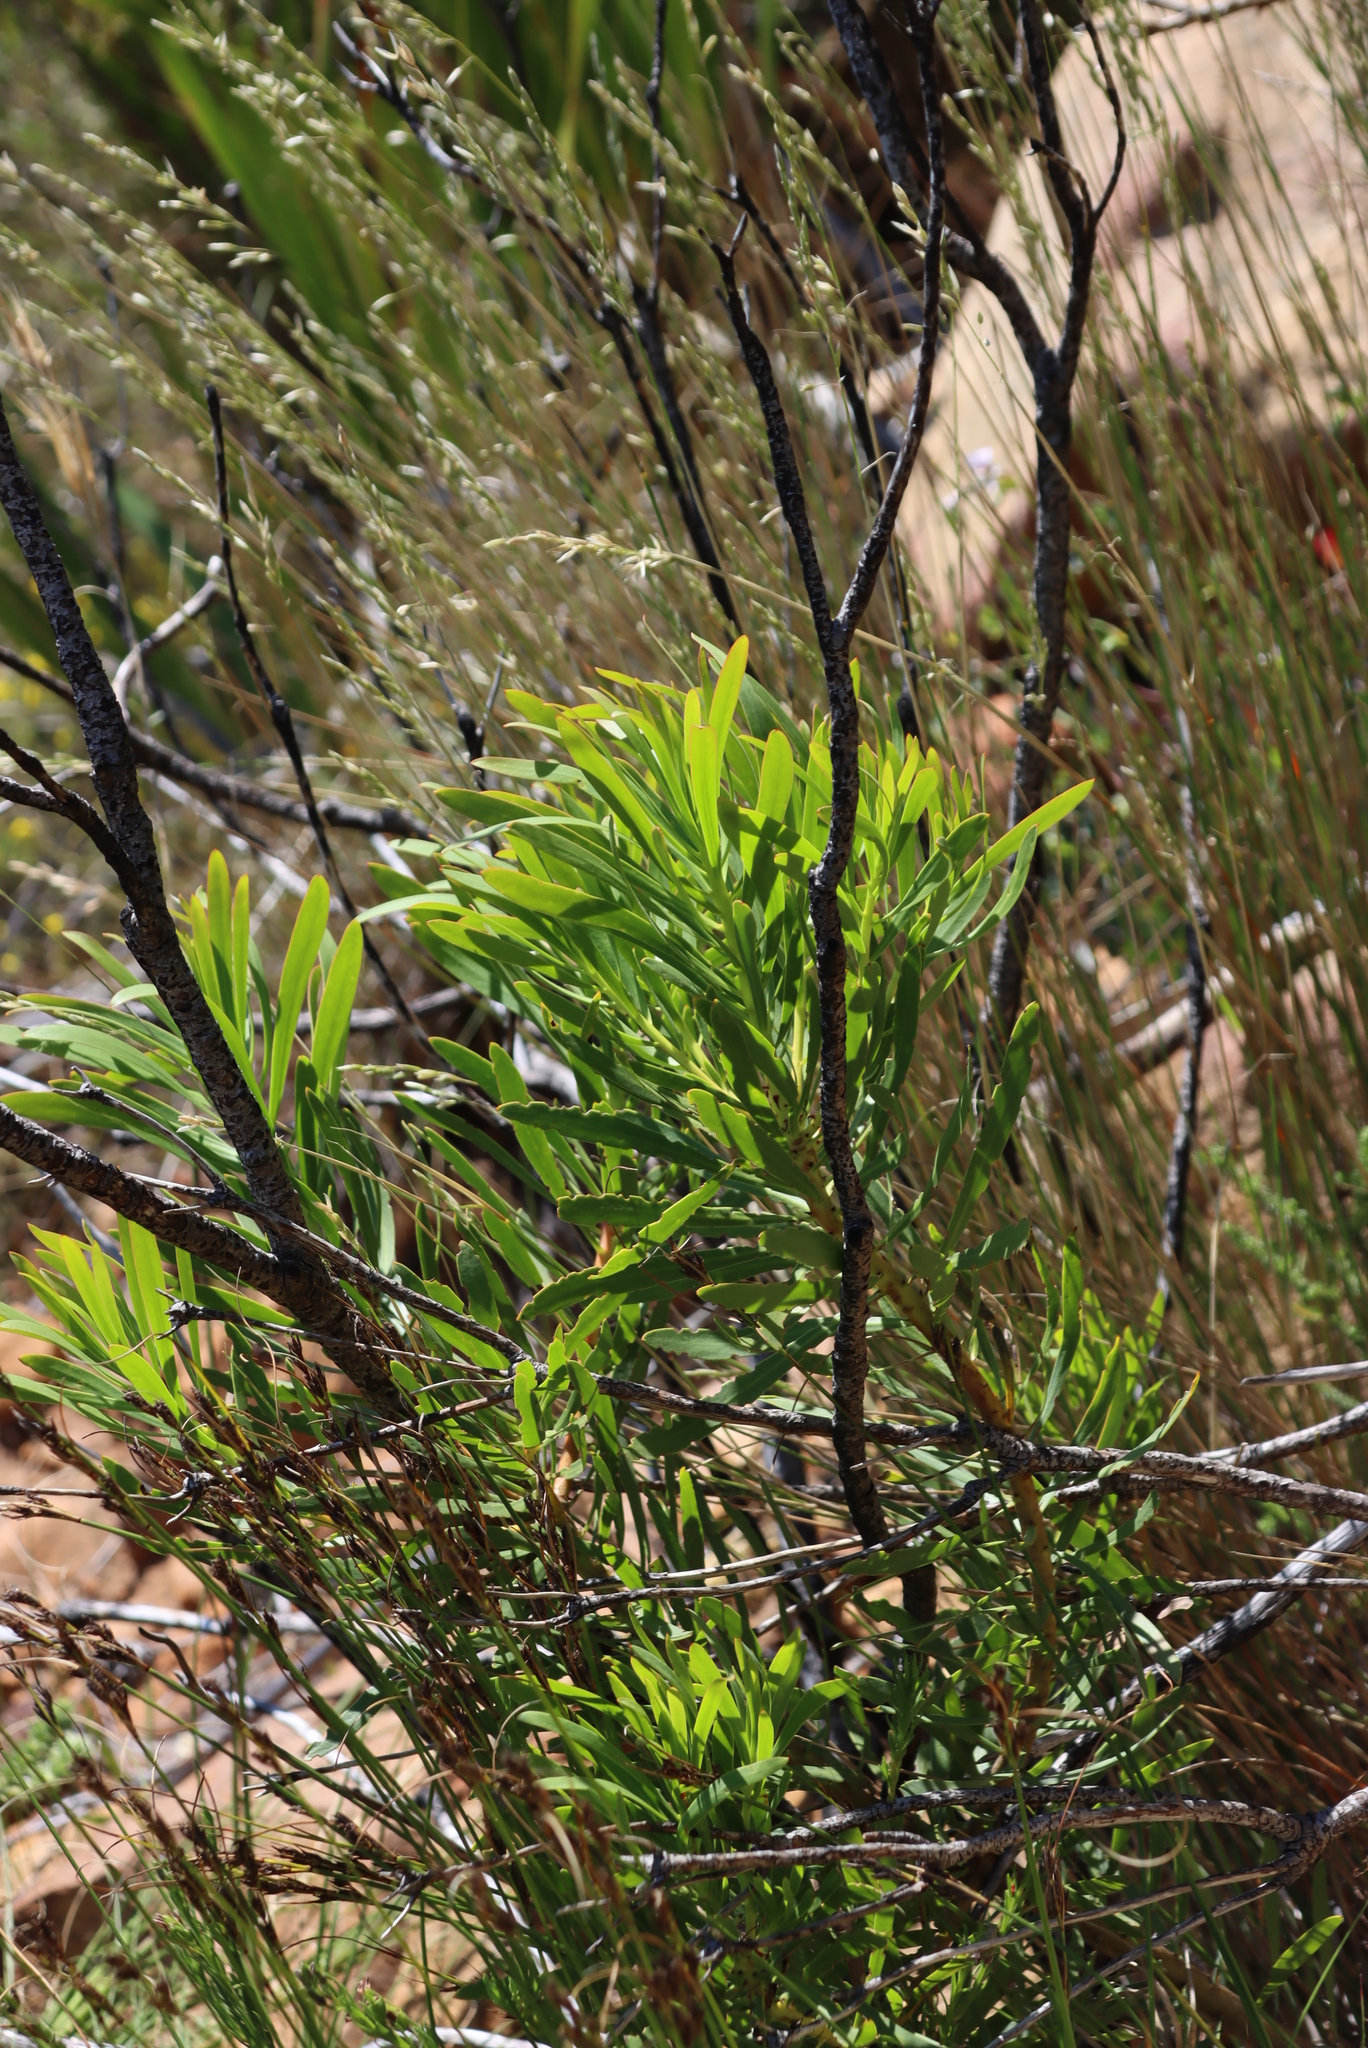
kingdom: Plantae
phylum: Tracheophyta
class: Magnoliopsida
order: Proteales
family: Proteaceae
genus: Protea
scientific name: Protea repens
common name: Sugarbush
